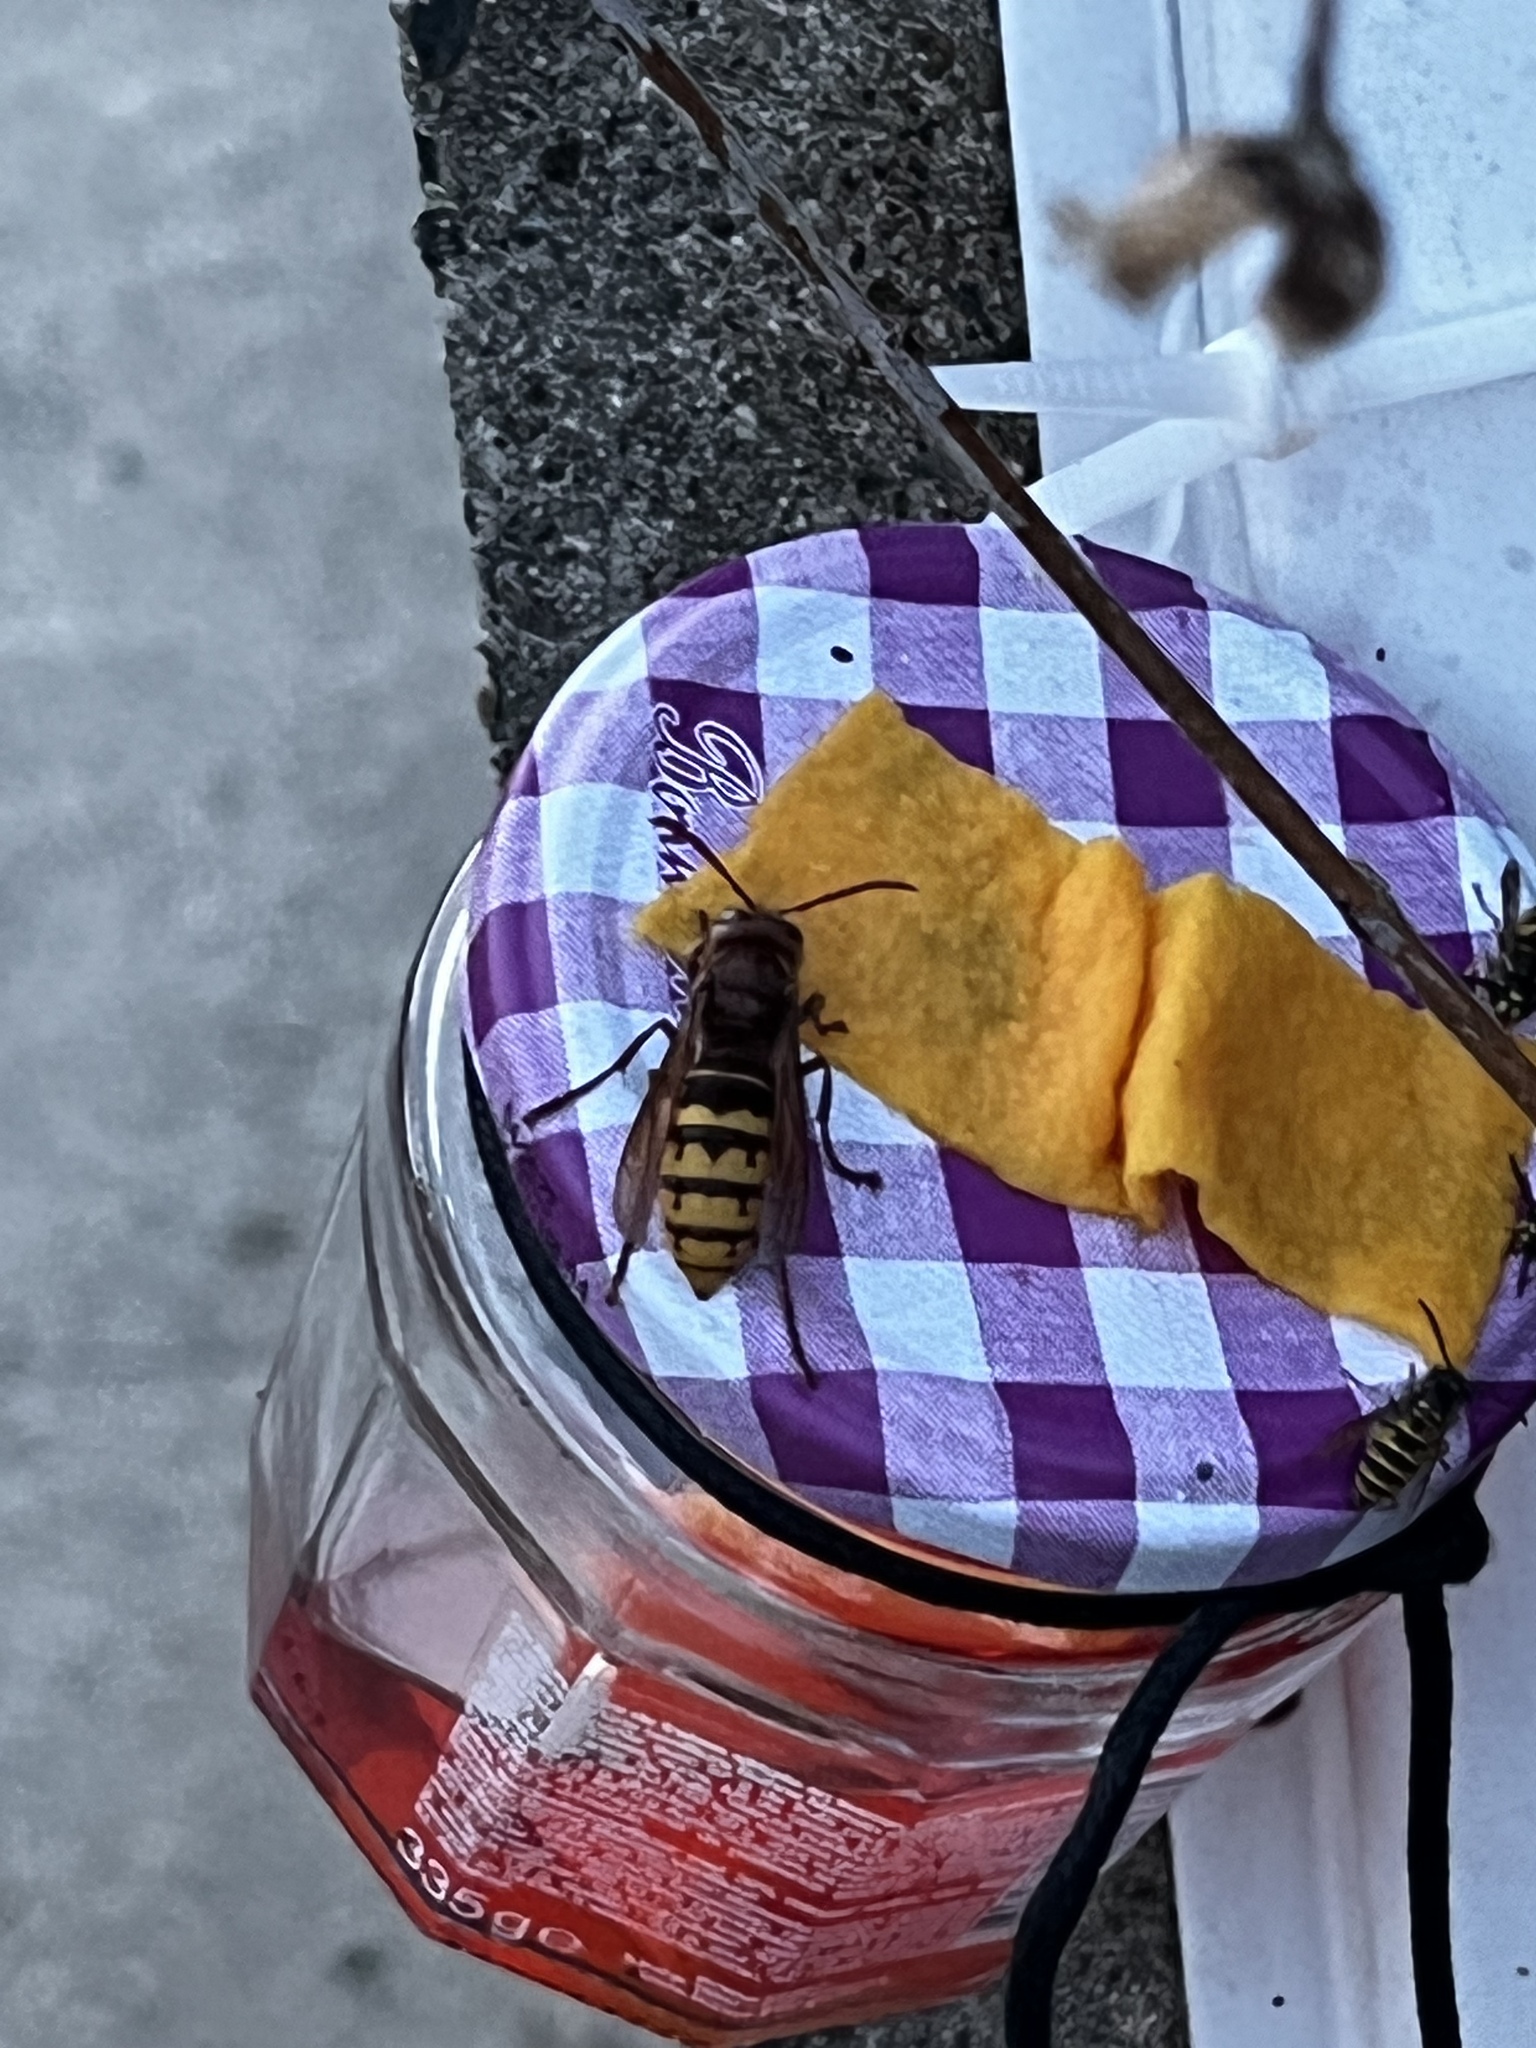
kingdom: Animalia
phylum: Arthropoda
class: Insecta
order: Hymenoptera
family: Vespidae
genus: Vespa
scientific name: Vespa crabro
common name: Hornet
